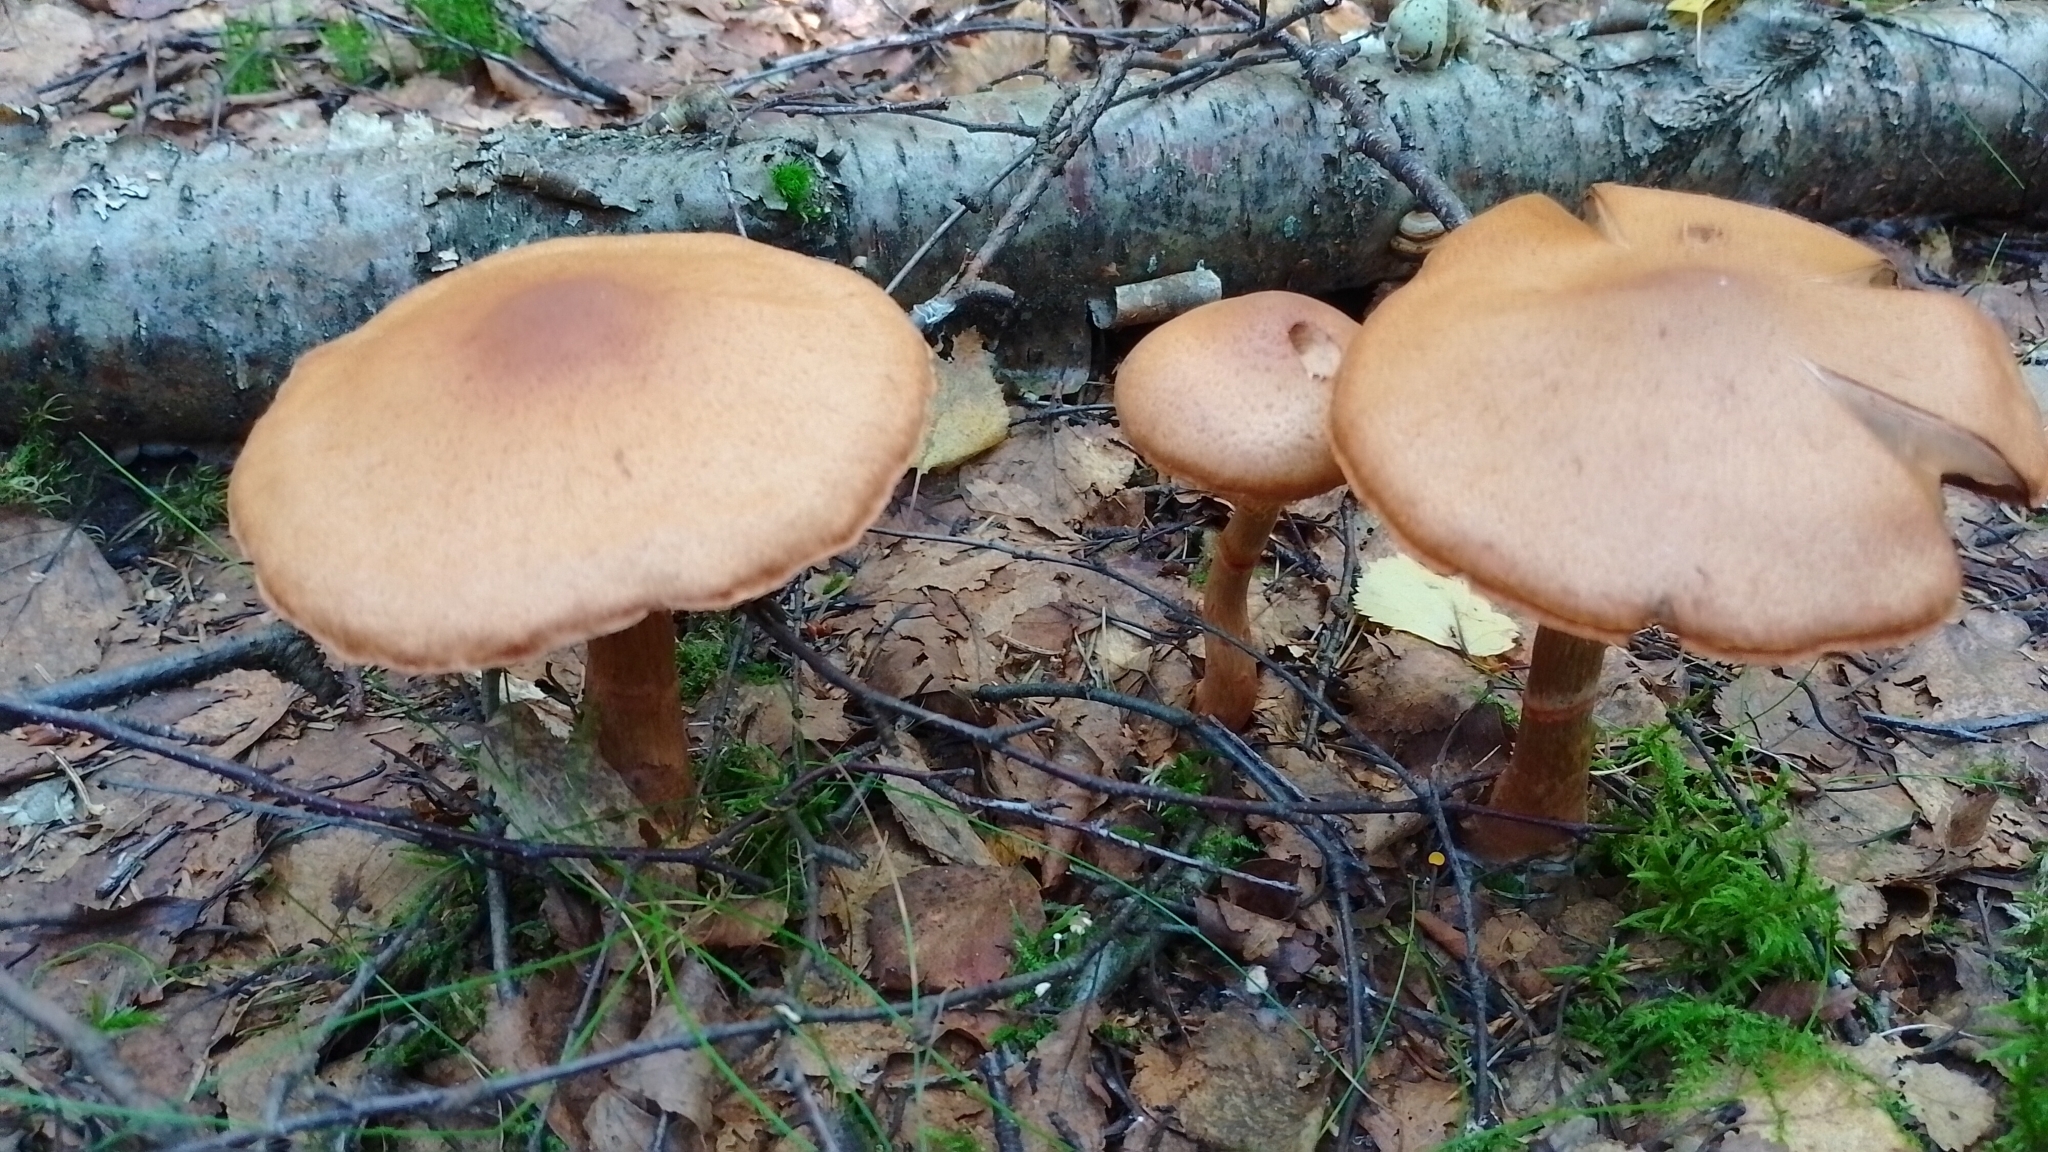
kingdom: Fungi
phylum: Basidiomycota
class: Agaricomycetes
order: Agaricales
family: Cortinariaceae
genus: Cortinarius
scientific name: Cortinarius armillatus
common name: Red banded webcap
